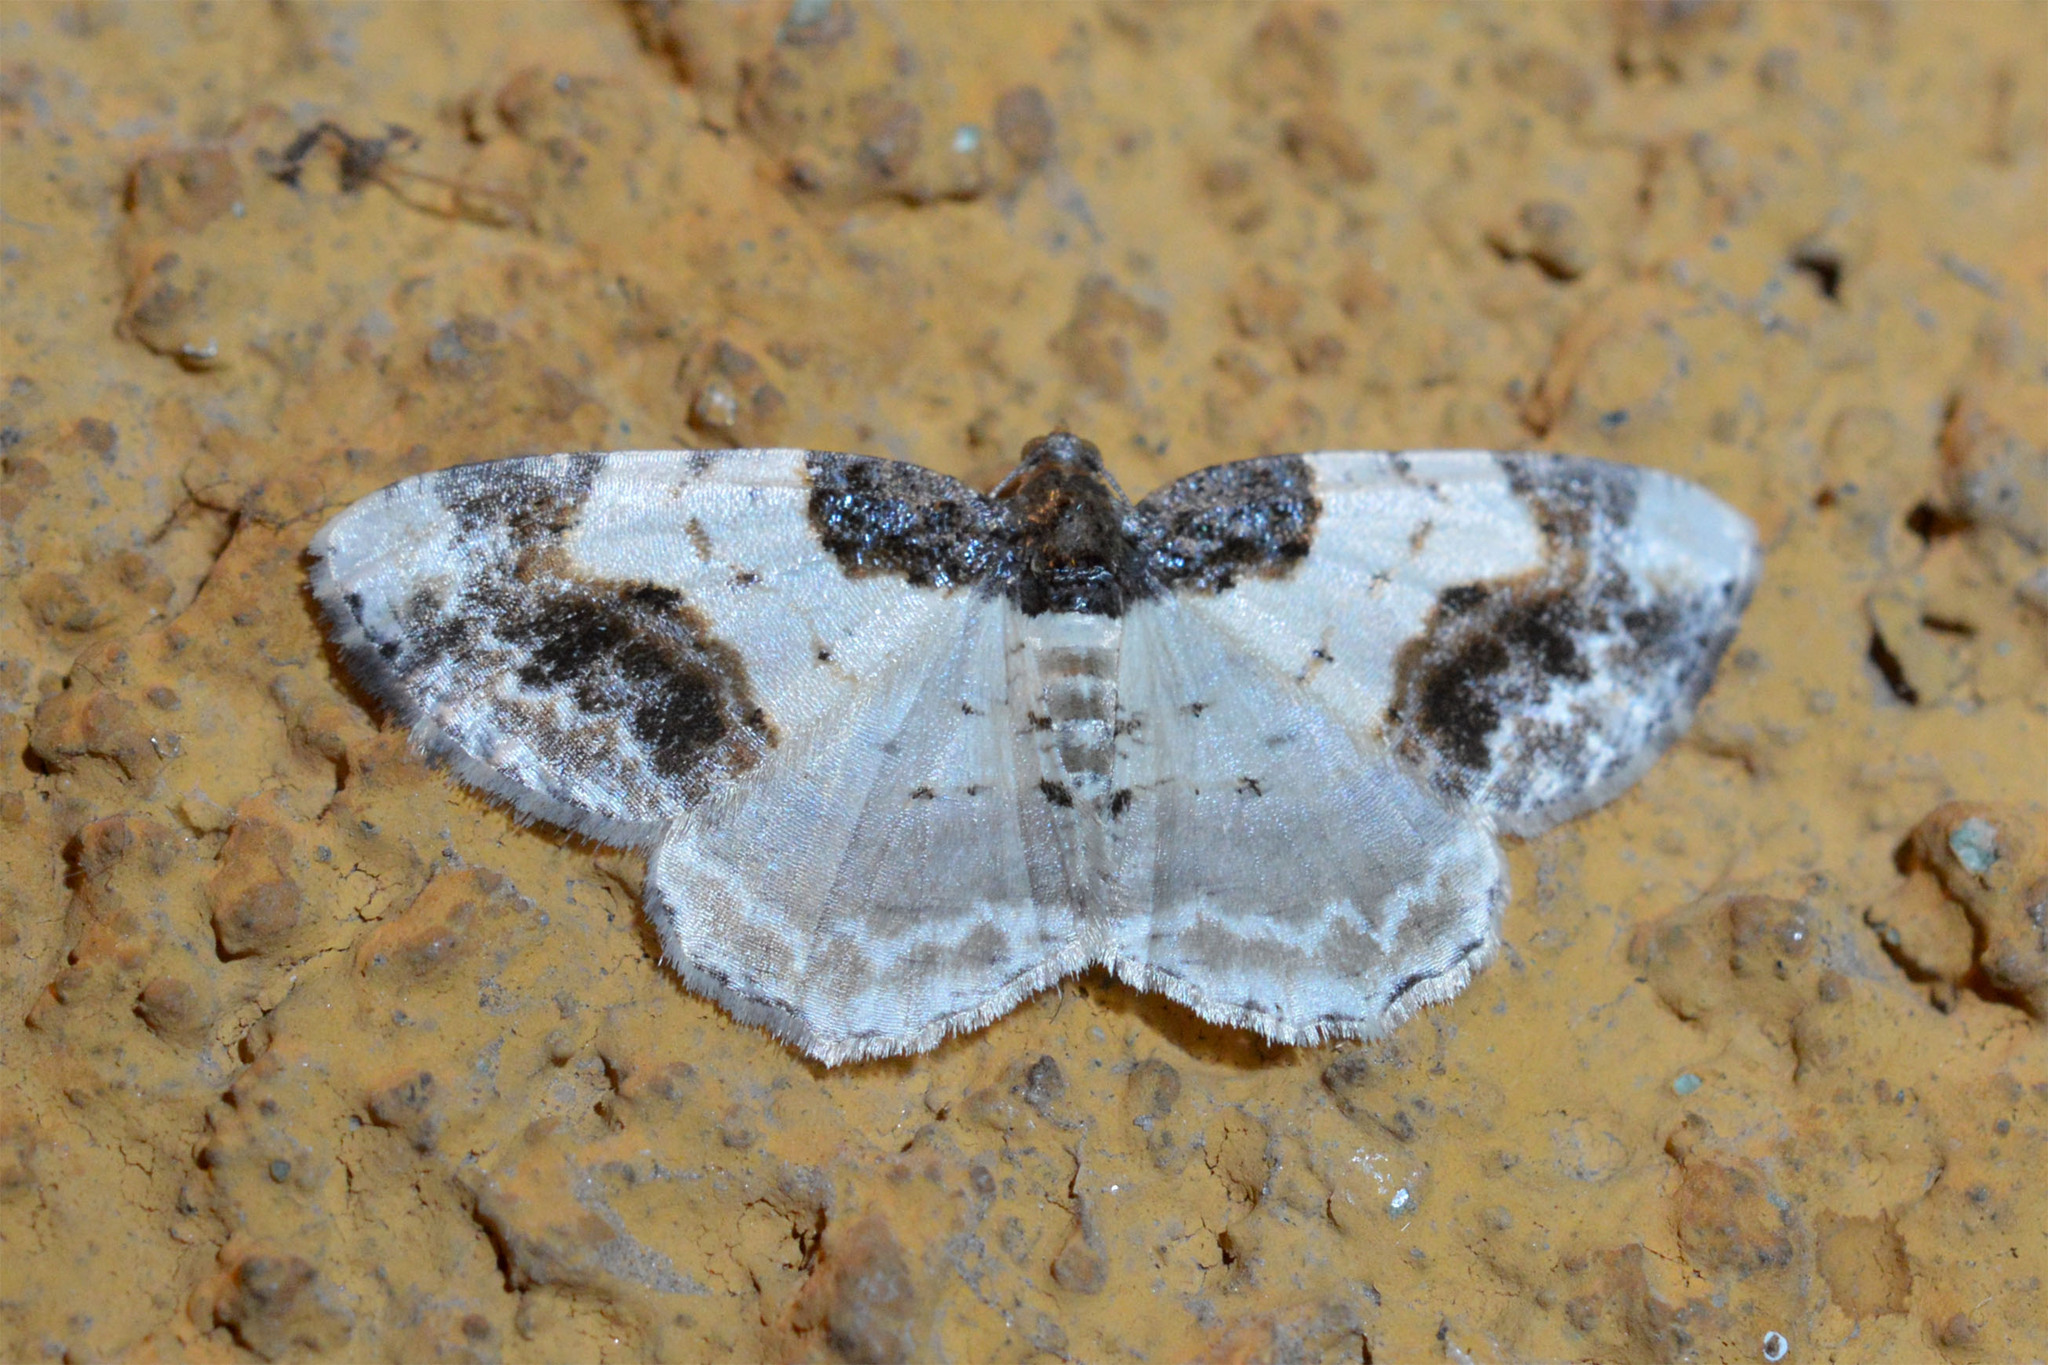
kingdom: Animalia
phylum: Arthropoda
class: Insecta
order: Lepidoptera
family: Geometridae
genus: Ligdia
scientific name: Ligdia adustata
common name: Scorched carpet
